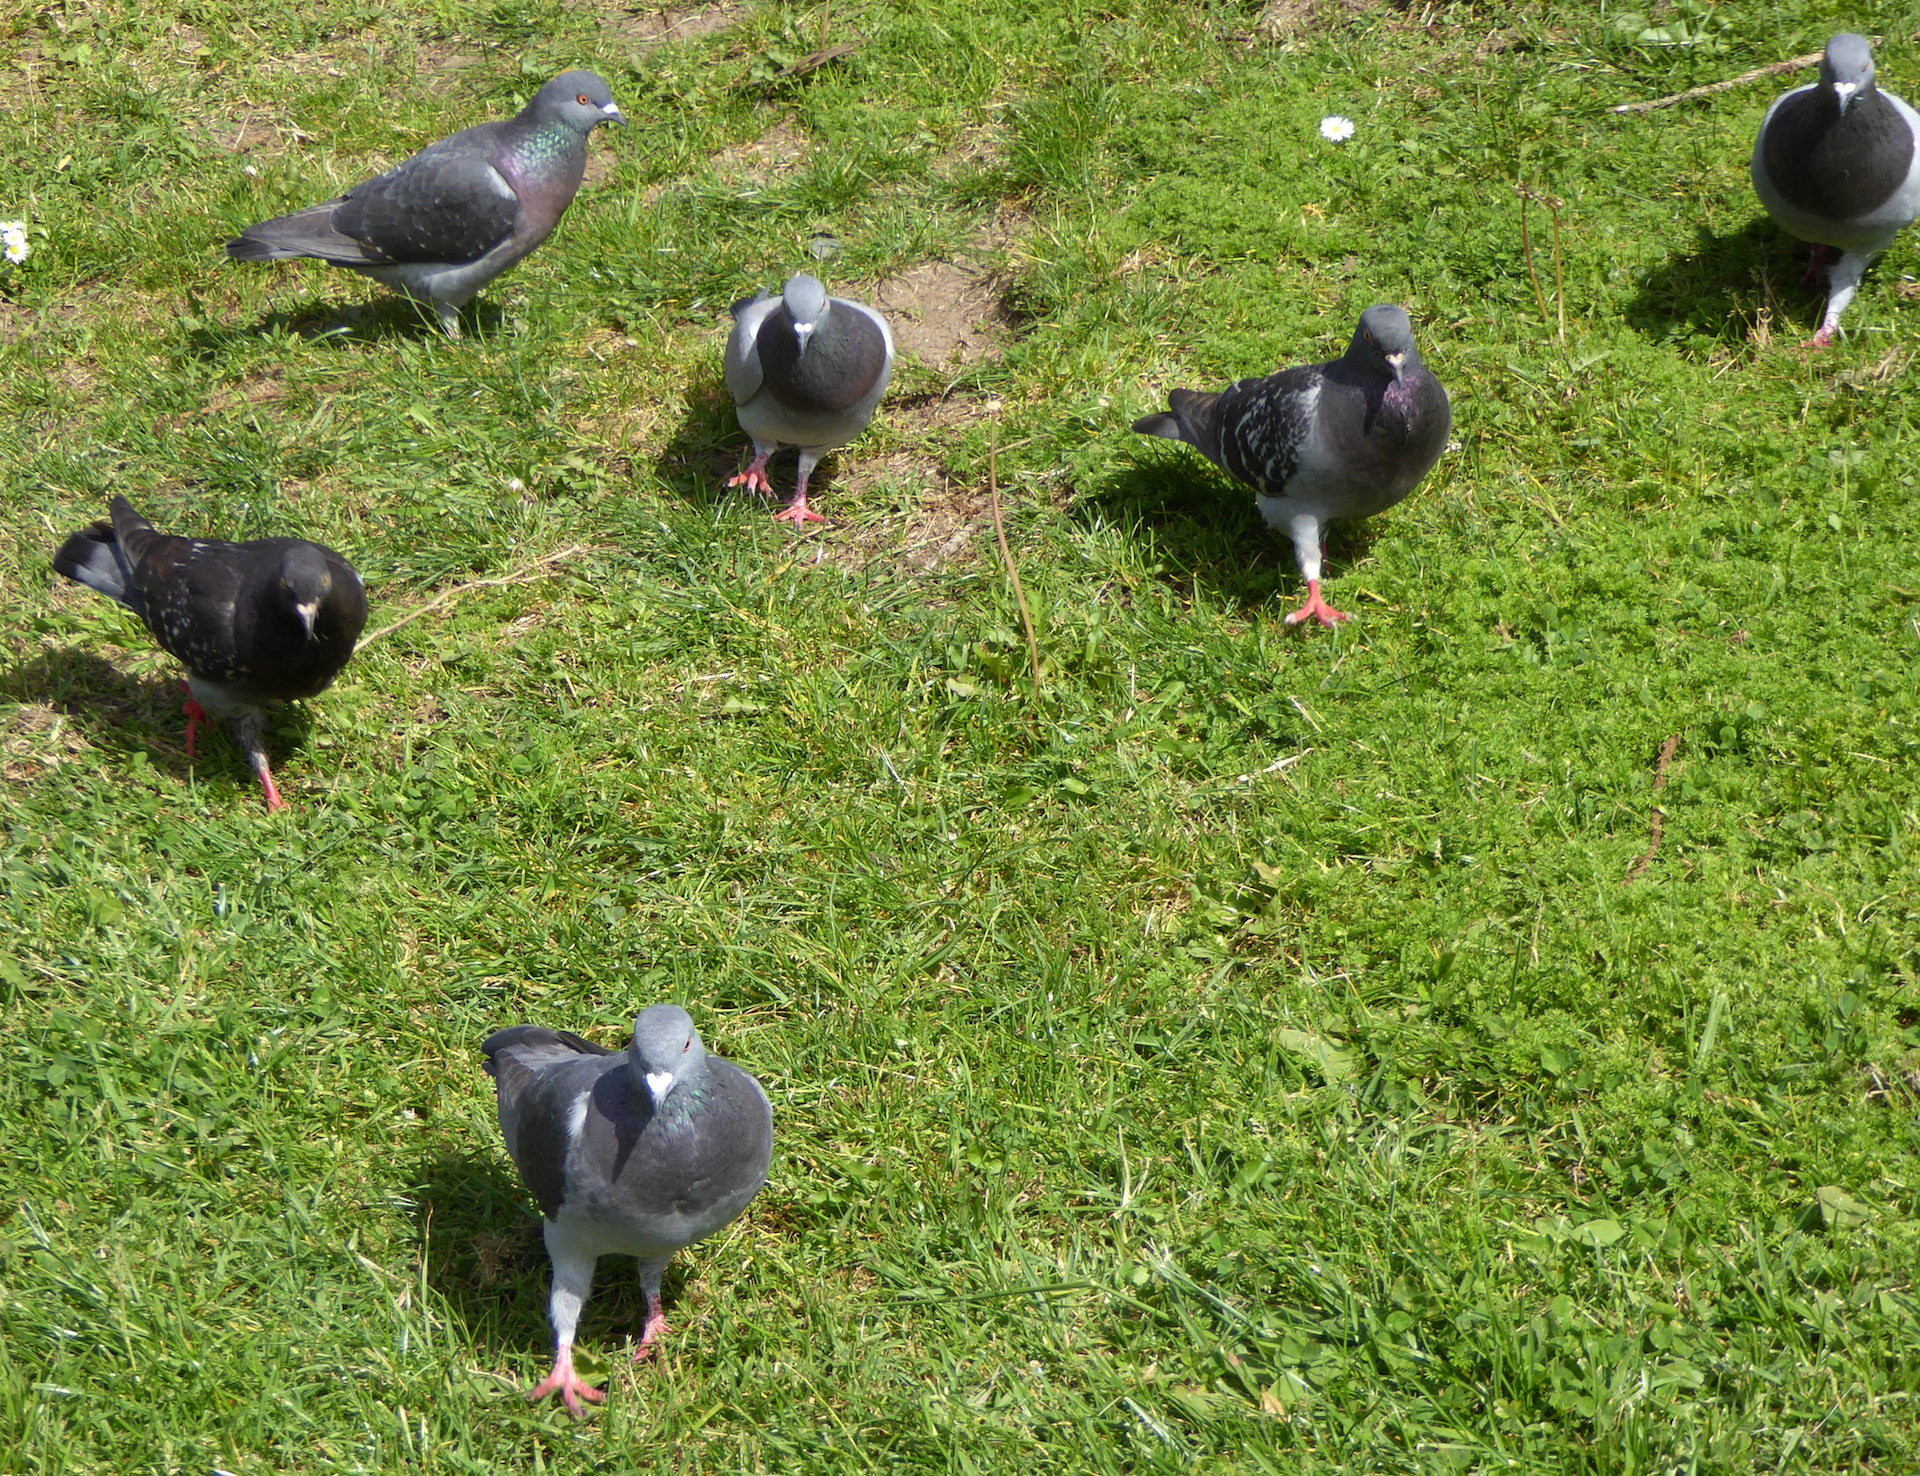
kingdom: Animalia
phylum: Chordata
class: Aves
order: Columbiformes
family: Columbidae
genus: Columba
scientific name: Columba livia
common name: Rock pigeon
